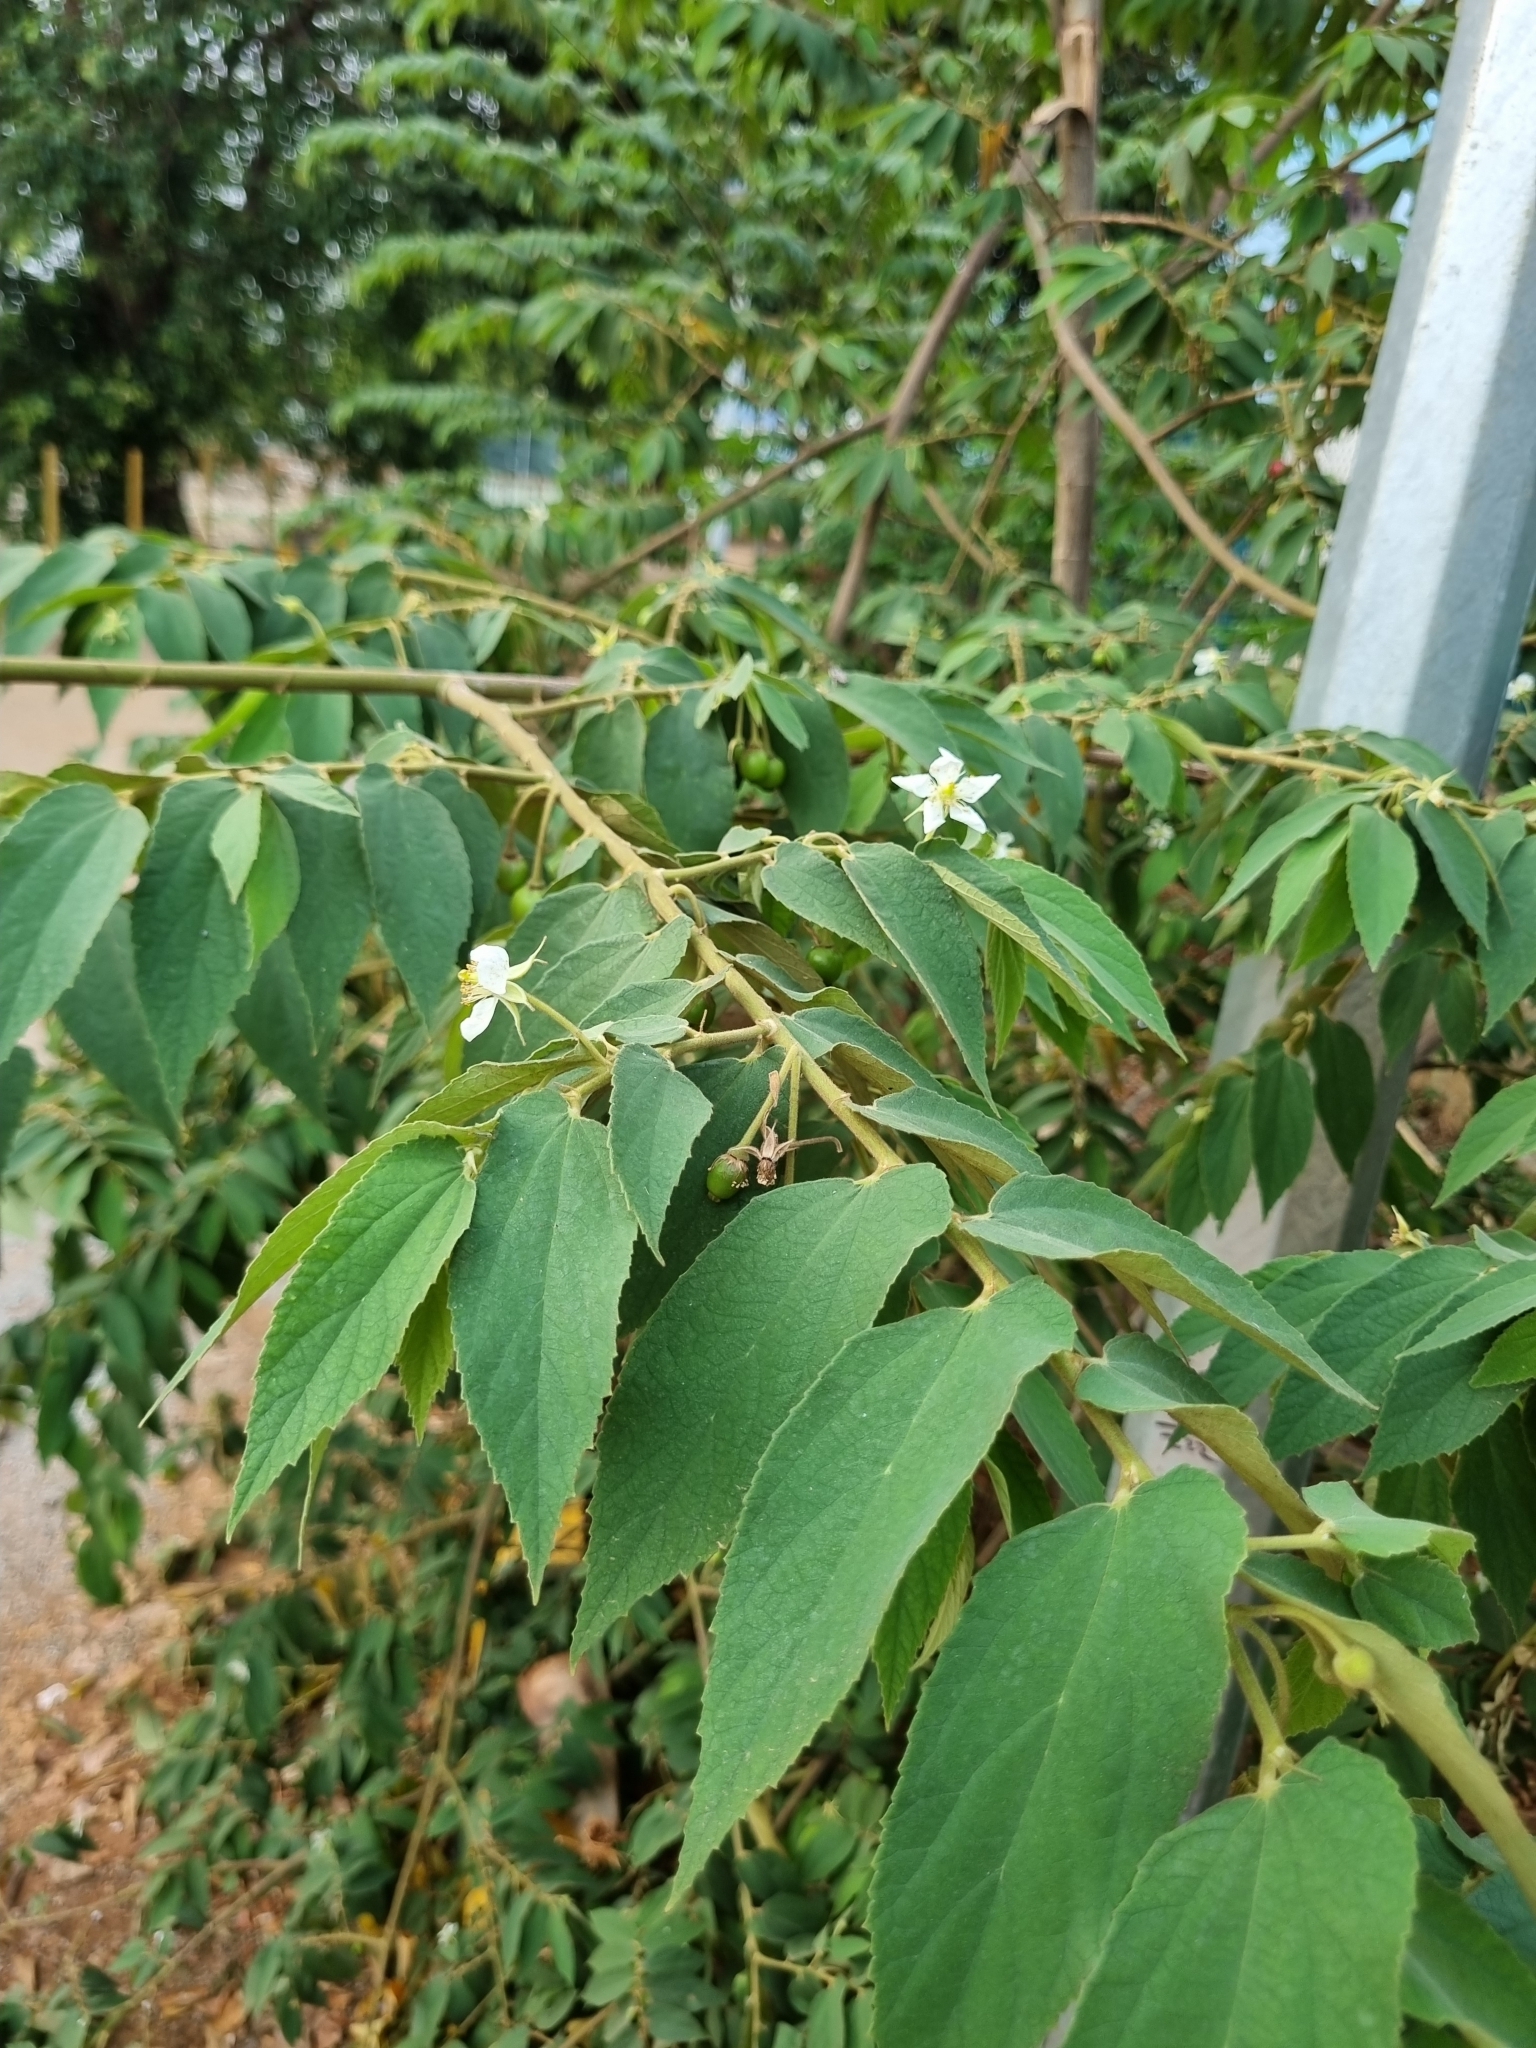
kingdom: Plantae
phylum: Tracheophyta
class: Magnoliopsida
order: Malvales
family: Muntingiaceae
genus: Muntingia
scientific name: Muntingia calabura
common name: Strawberrytree
